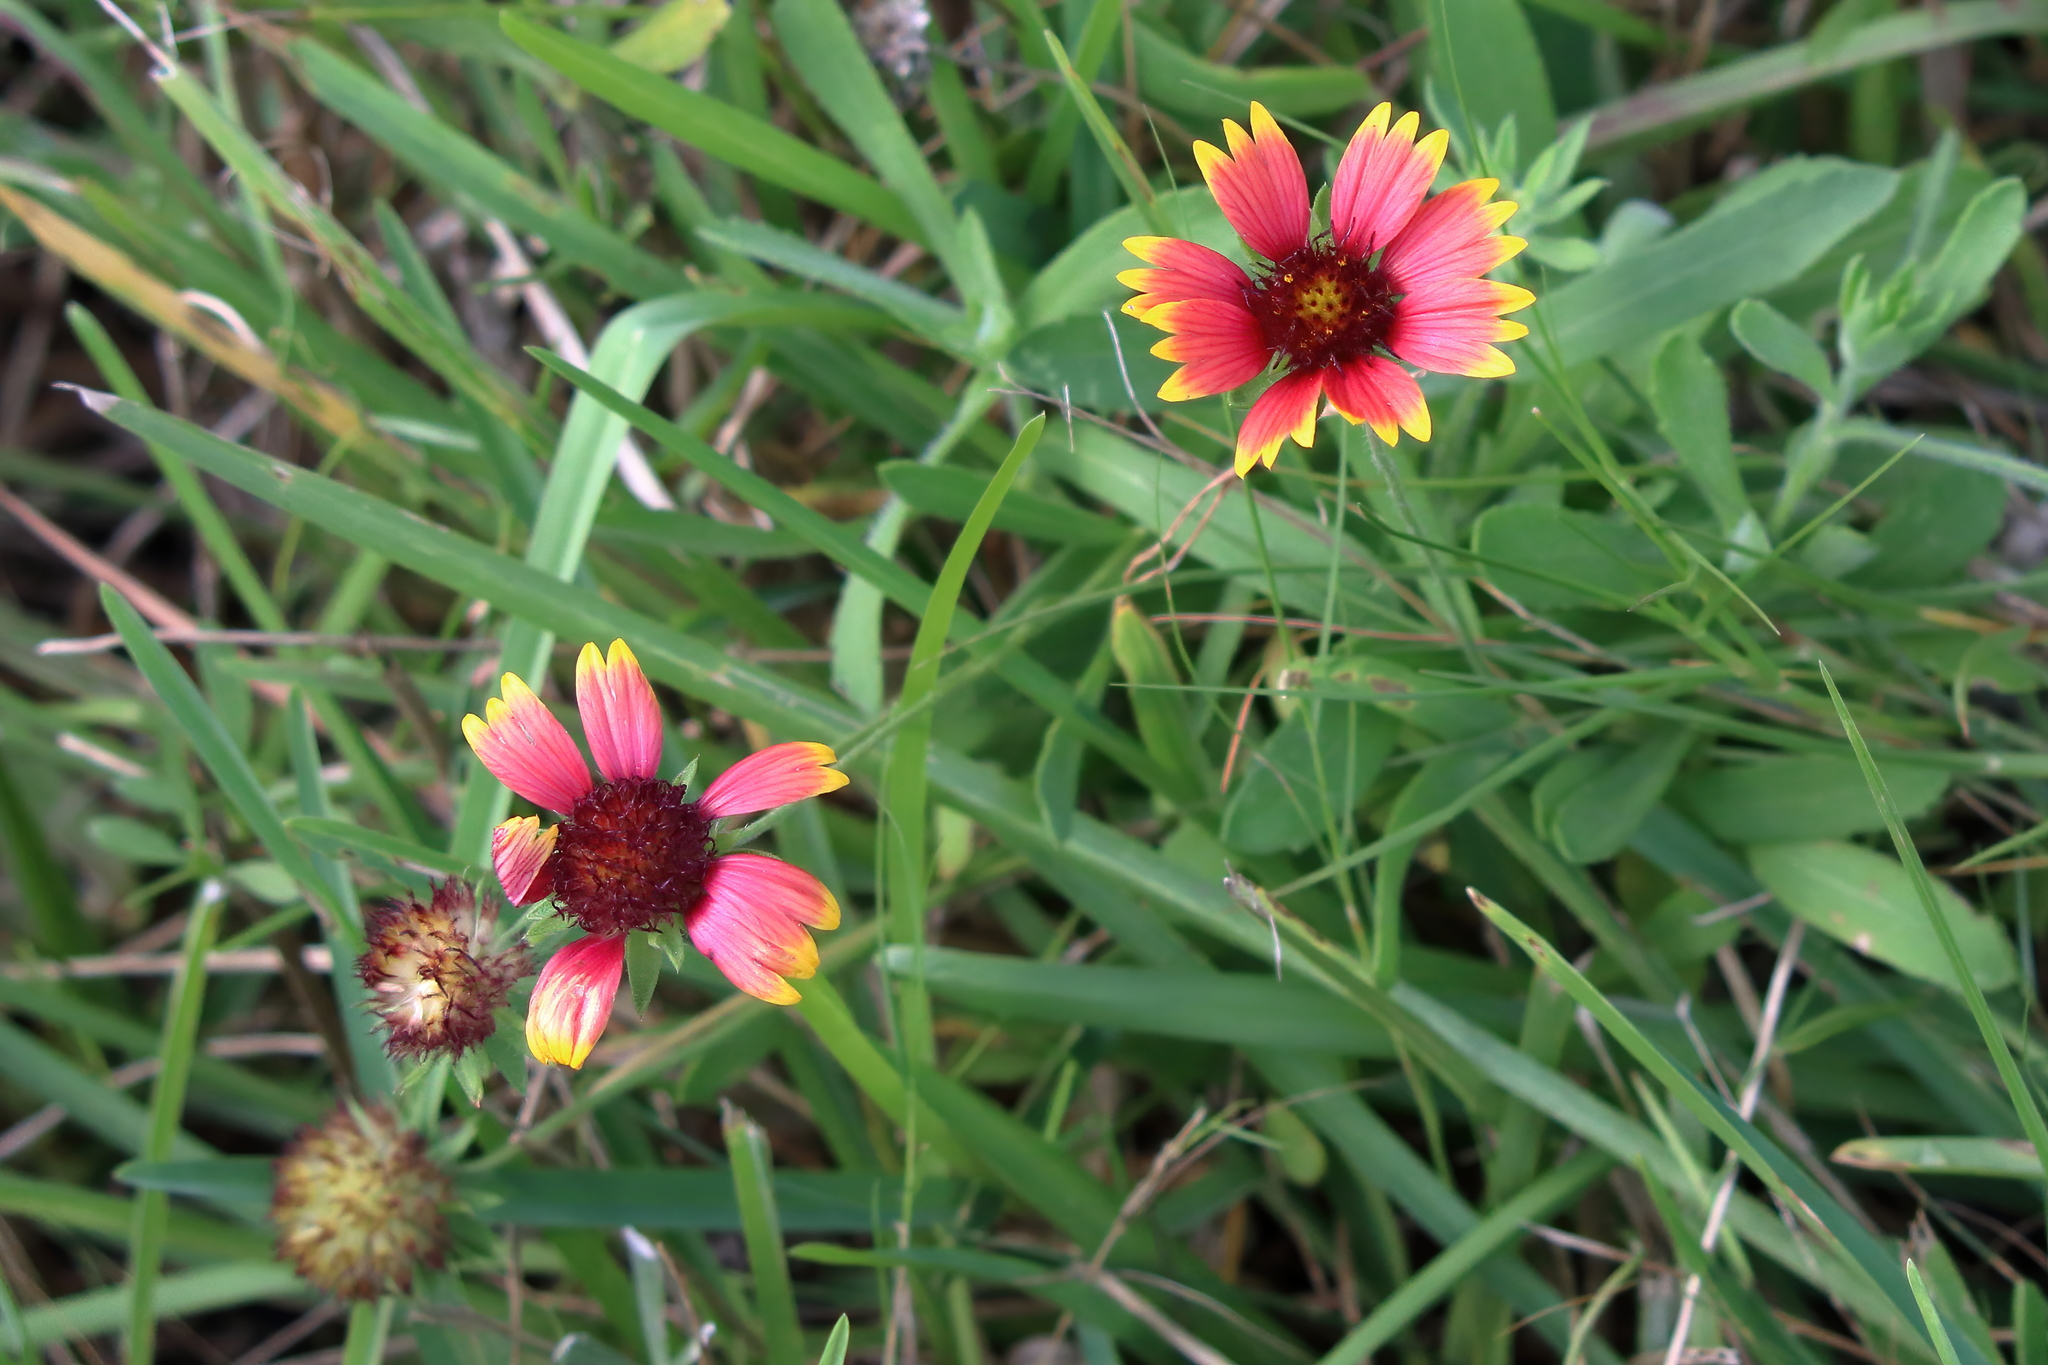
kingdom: Plantae
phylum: Tracheophyta
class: Magnoliopsida
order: Asterales
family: Asteraceae
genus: Gaillardia
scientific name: Gaillardia pulchella
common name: Firewheel
